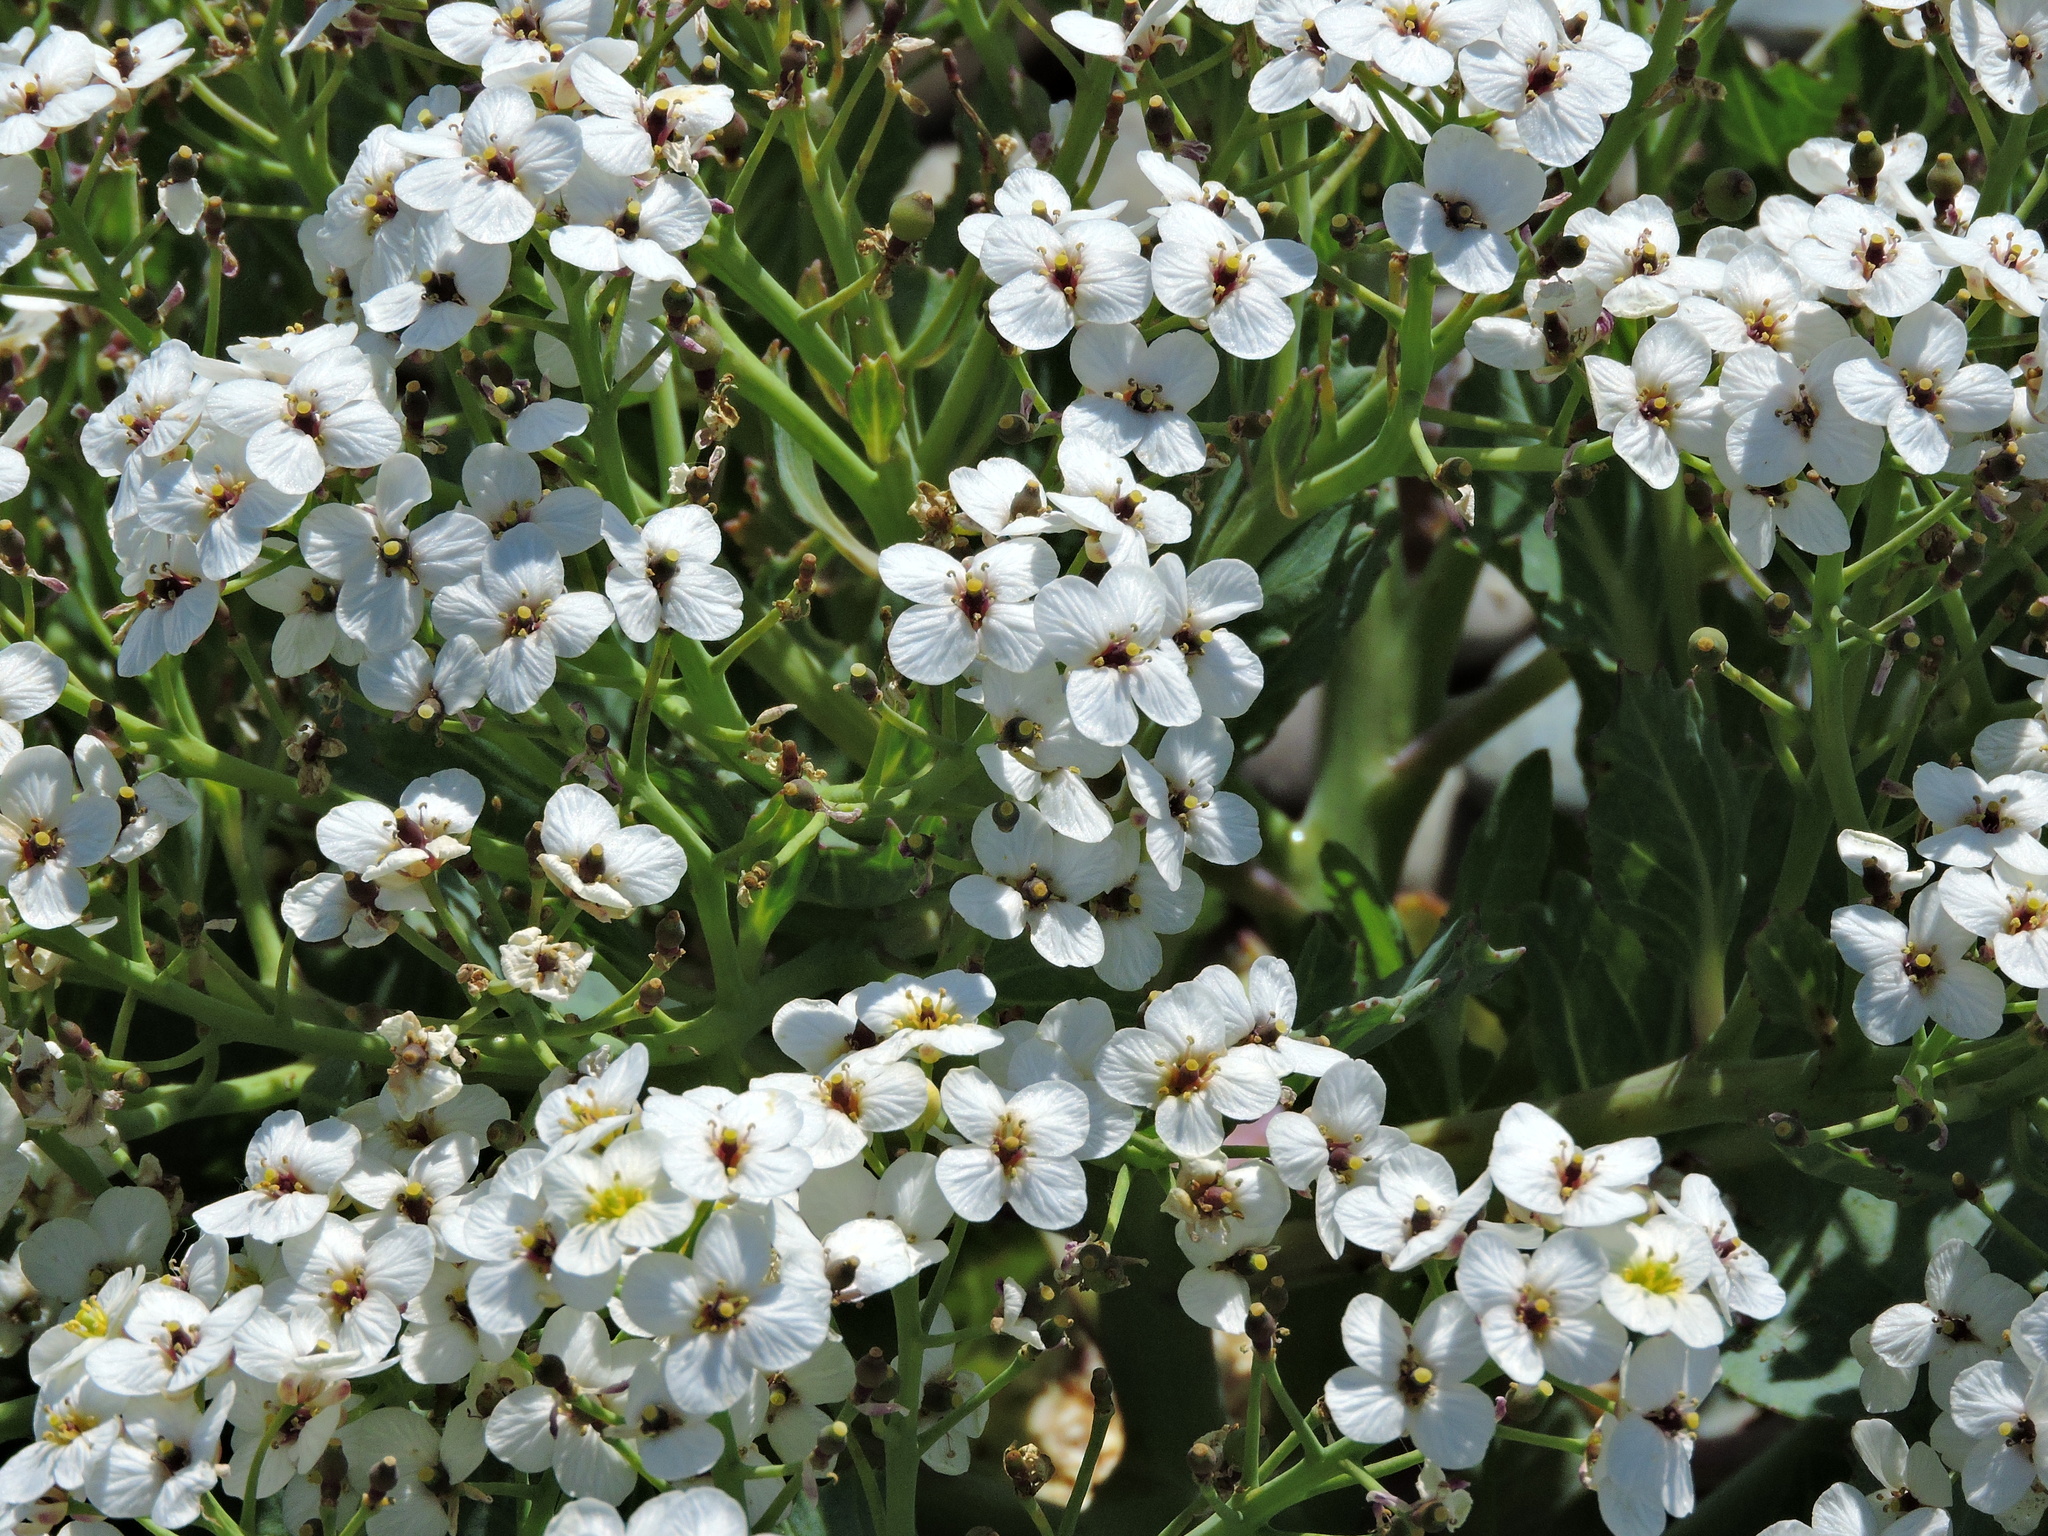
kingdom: Plantae
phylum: Tracheophyta
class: Magnoliopsida
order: Brassicales
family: Brassicaceae
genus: Crambe
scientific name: Crambe maritima
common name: Sea-kale
